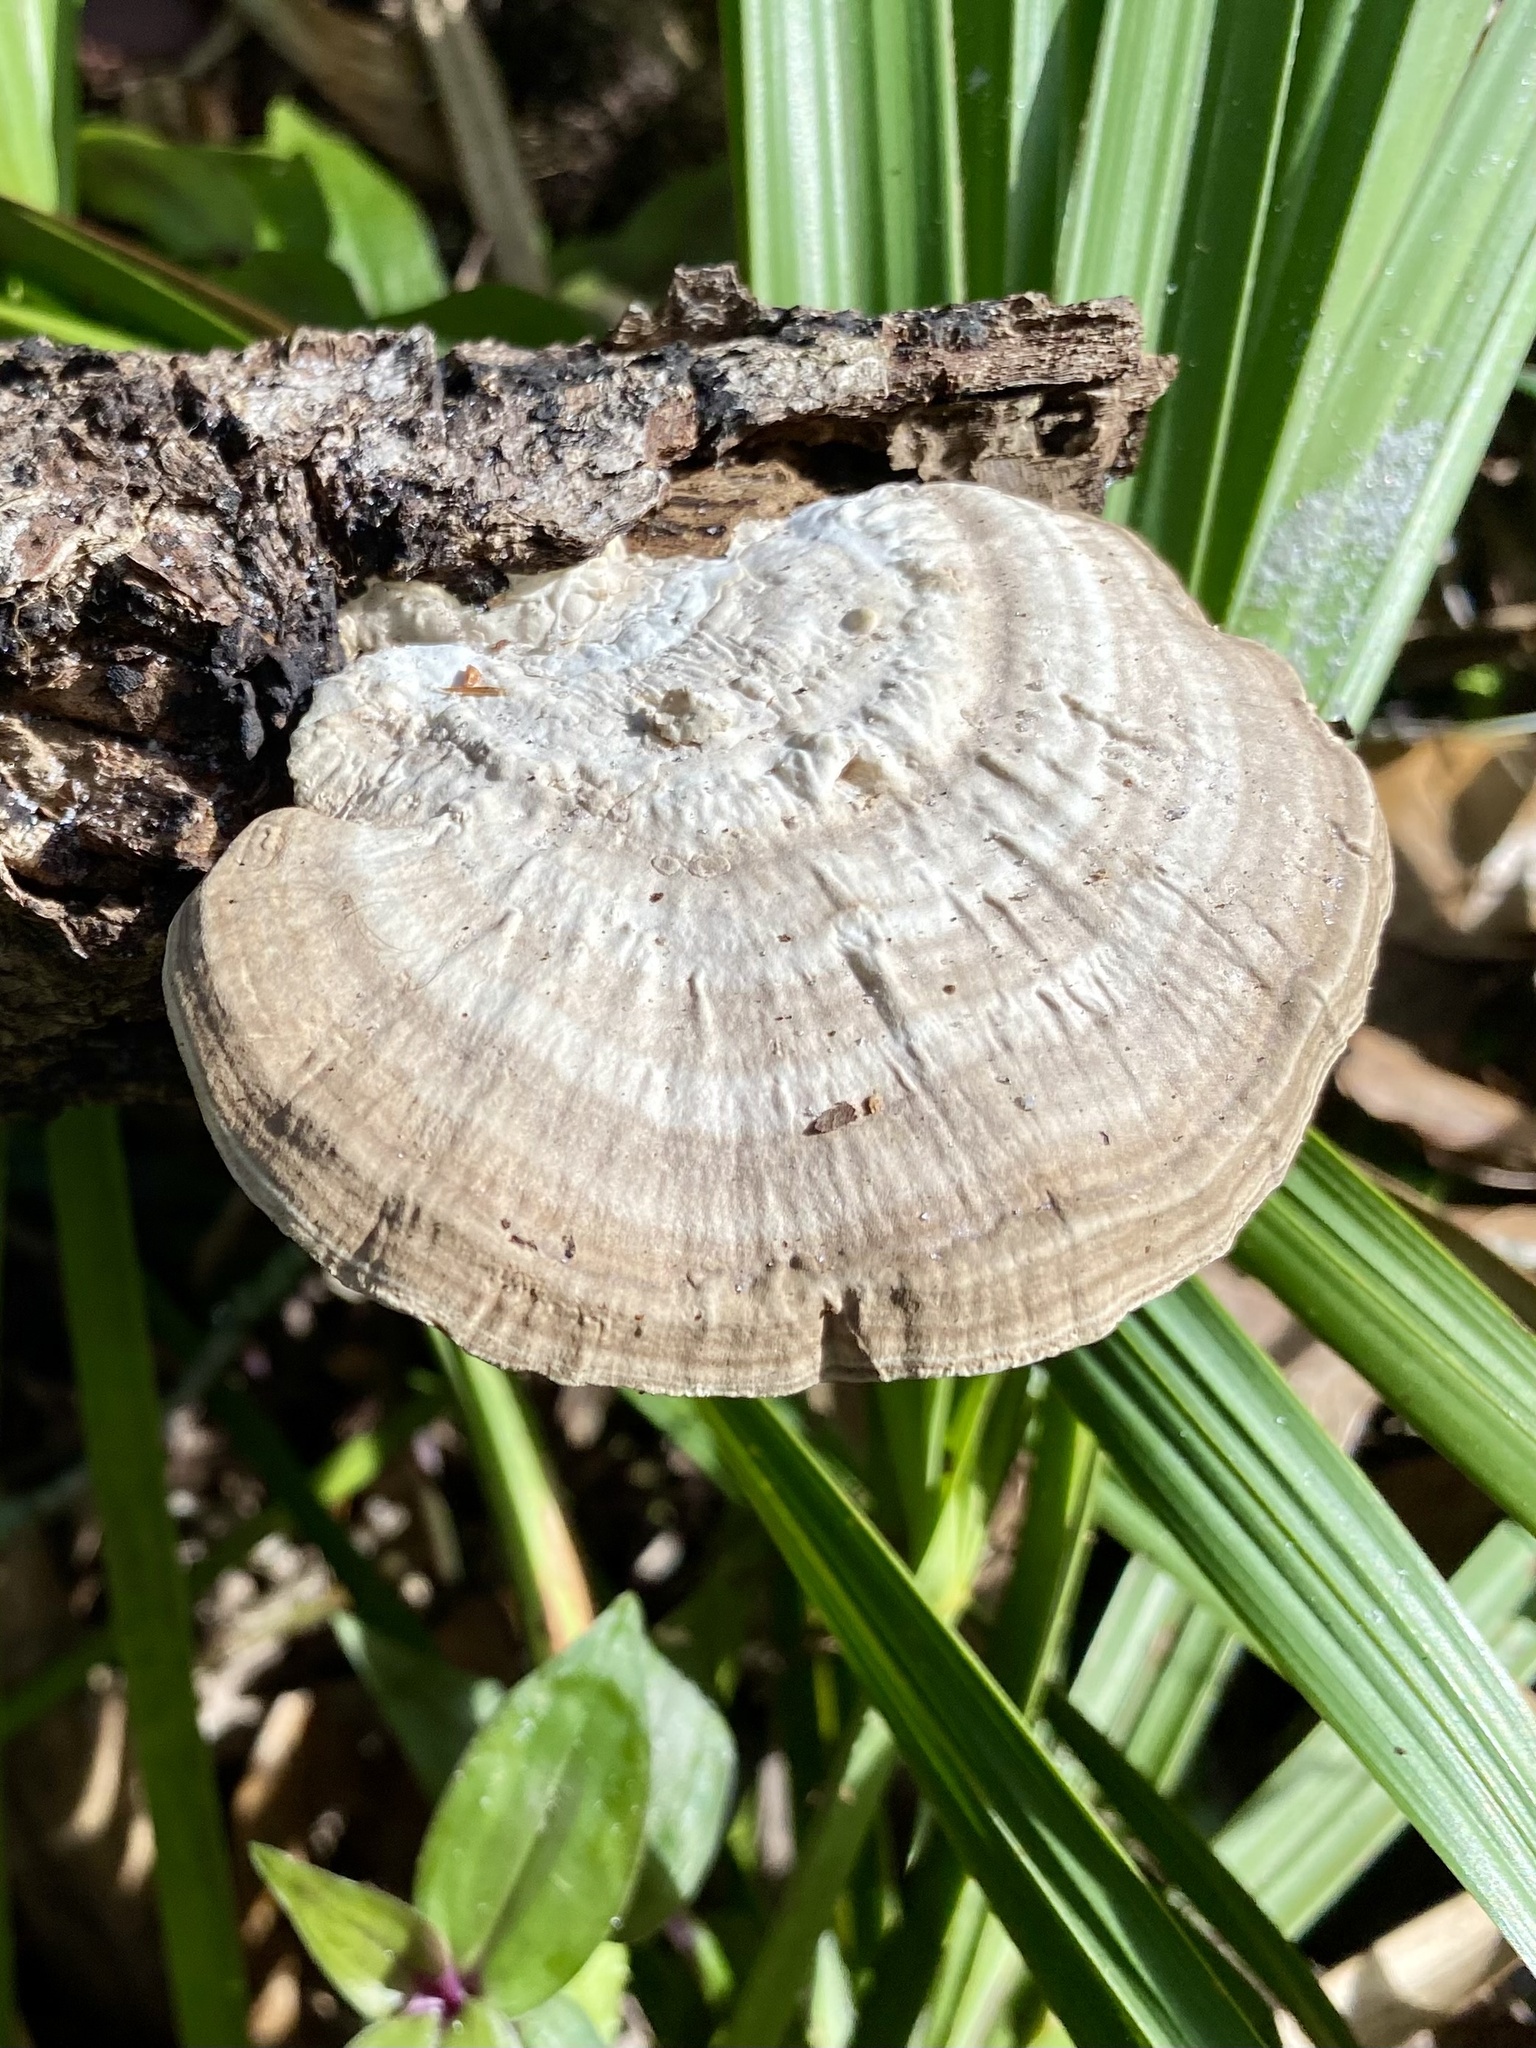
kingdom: Fungi
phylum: Basidiomycota
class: Agaricomycetes
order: Polyporales
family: Polyporaceae
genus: Trametes
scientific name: Trametes lactinea
